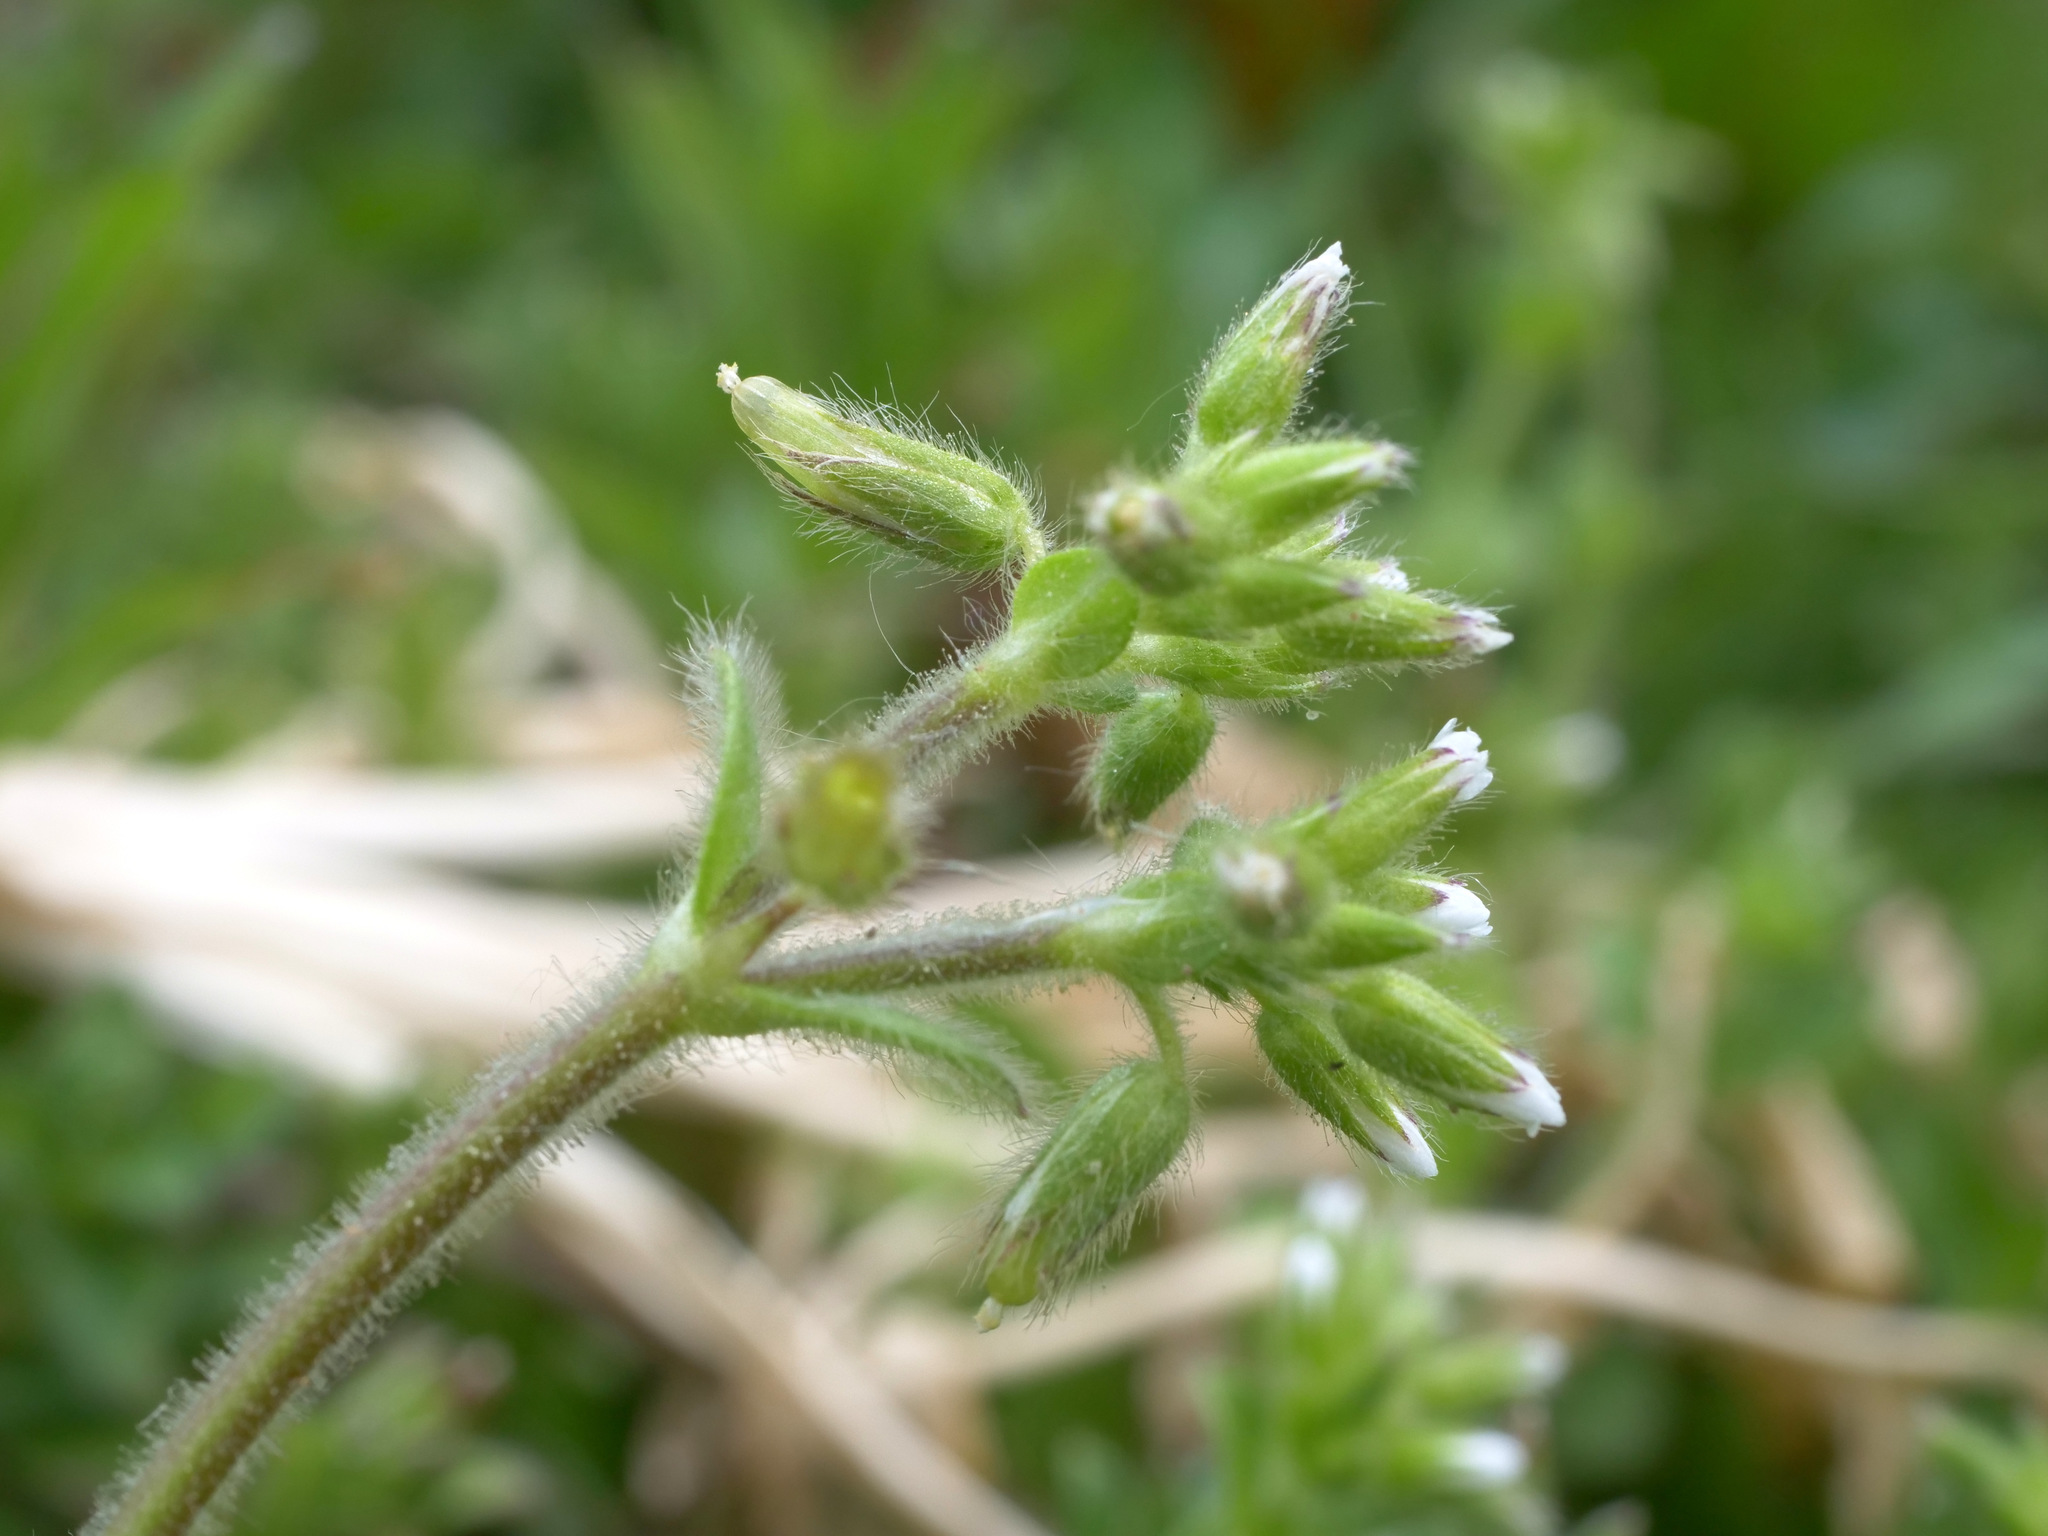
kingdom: Plantae
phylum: Tracheophyta
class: Magnoliopsida
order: Caryophyllales
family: Caryophyllaceae
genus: Cerastium
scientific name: Cerastium glomeratum
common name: Sticky chickweed
